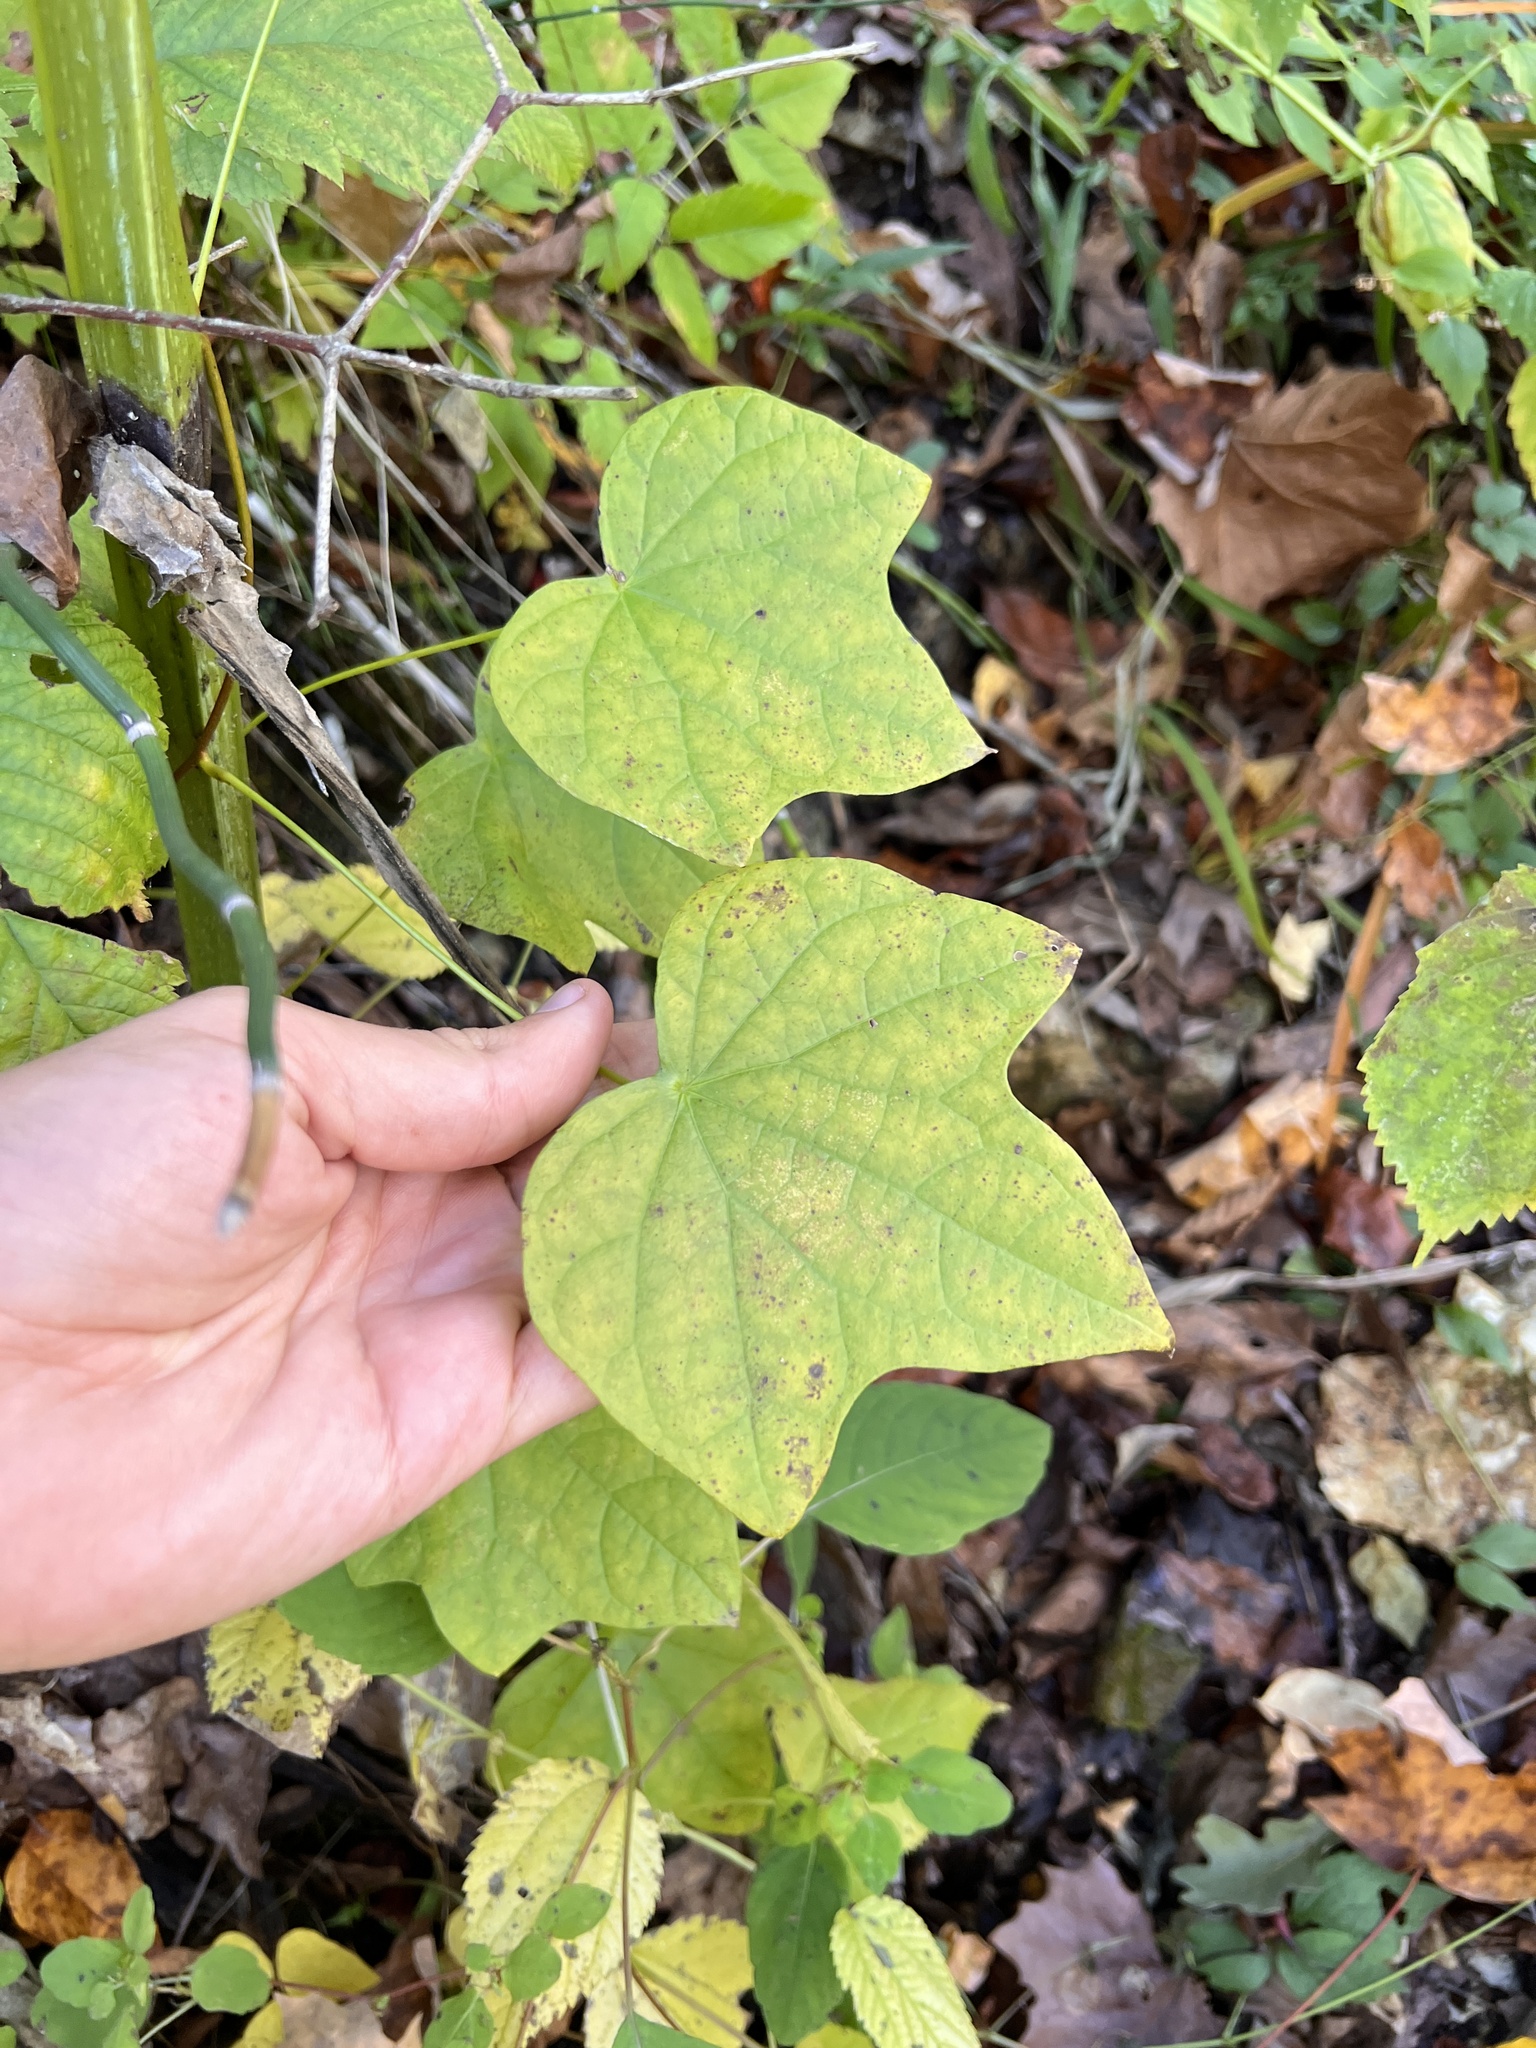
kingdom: Plantae
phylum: Tracheophyta
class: Magnoliopsida
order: Ranunculales
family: Menispermaceae
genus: Menispermum
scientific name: Menispermum canadense
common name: Moonseed
